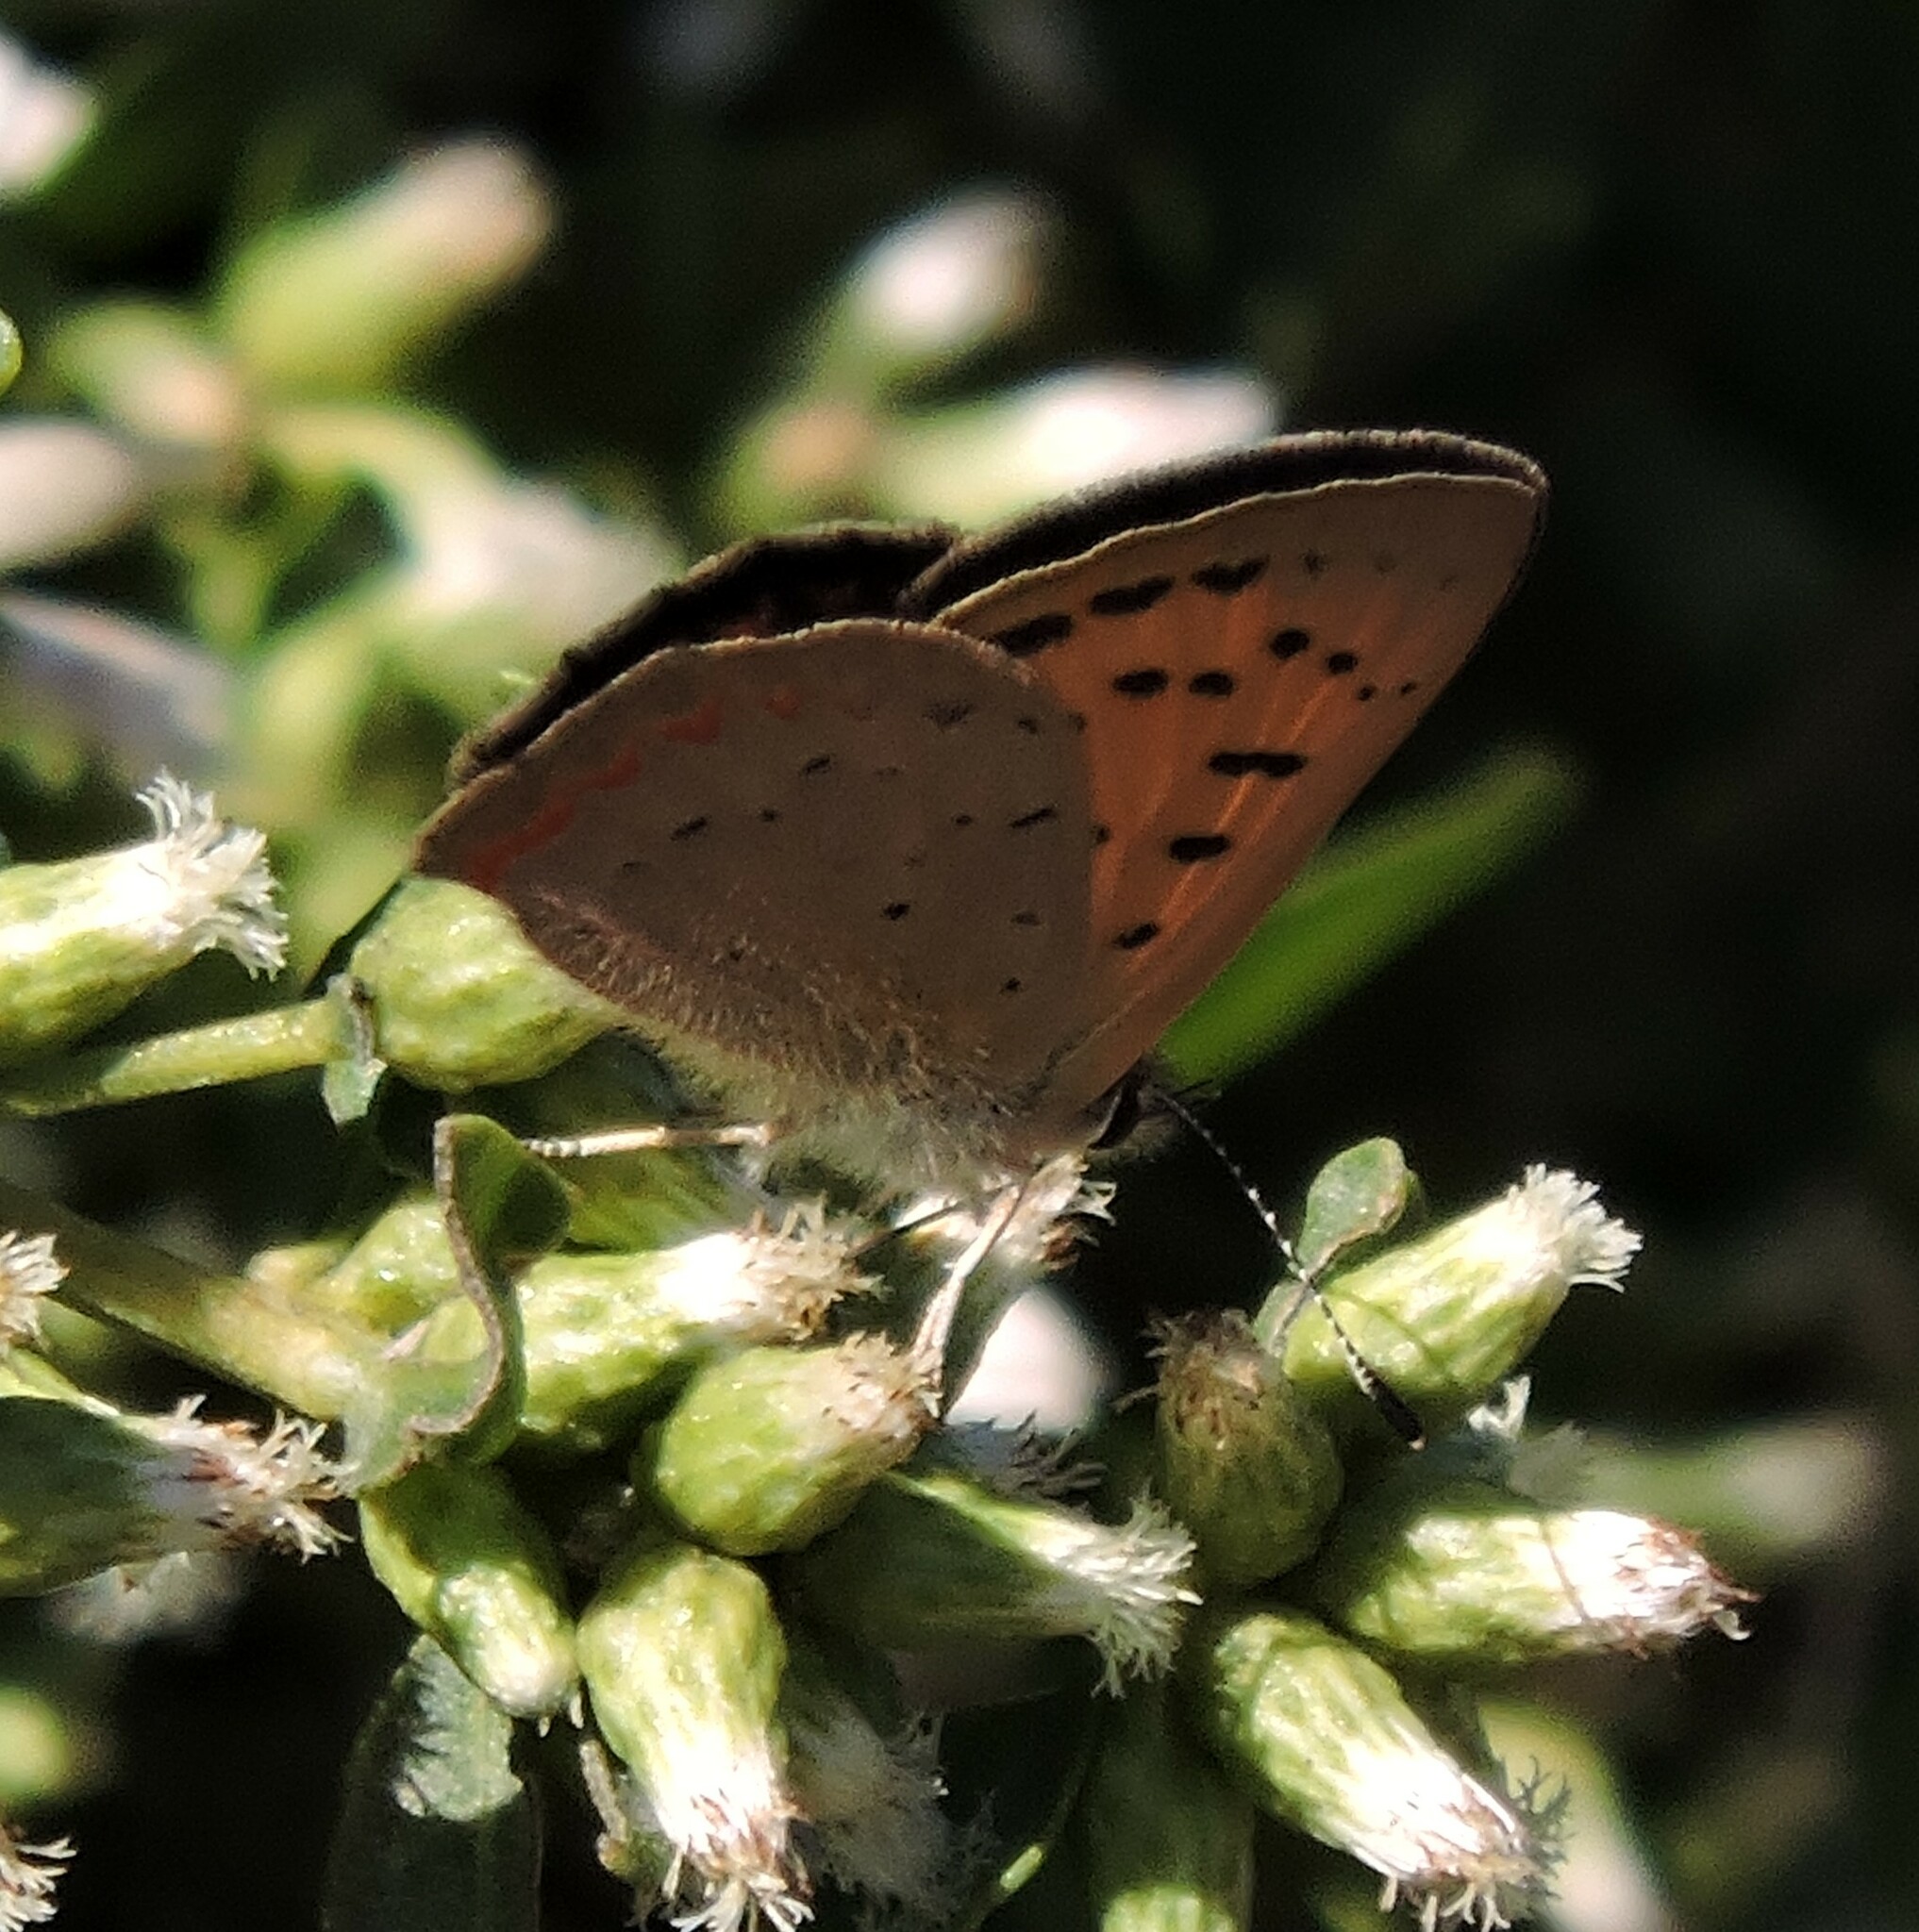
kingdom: Animalia
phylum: Arthropoda
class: Insecta
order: Lepidoptera
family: Lycaenidae
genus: Tharsalea
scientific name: Tharsalea helloides
